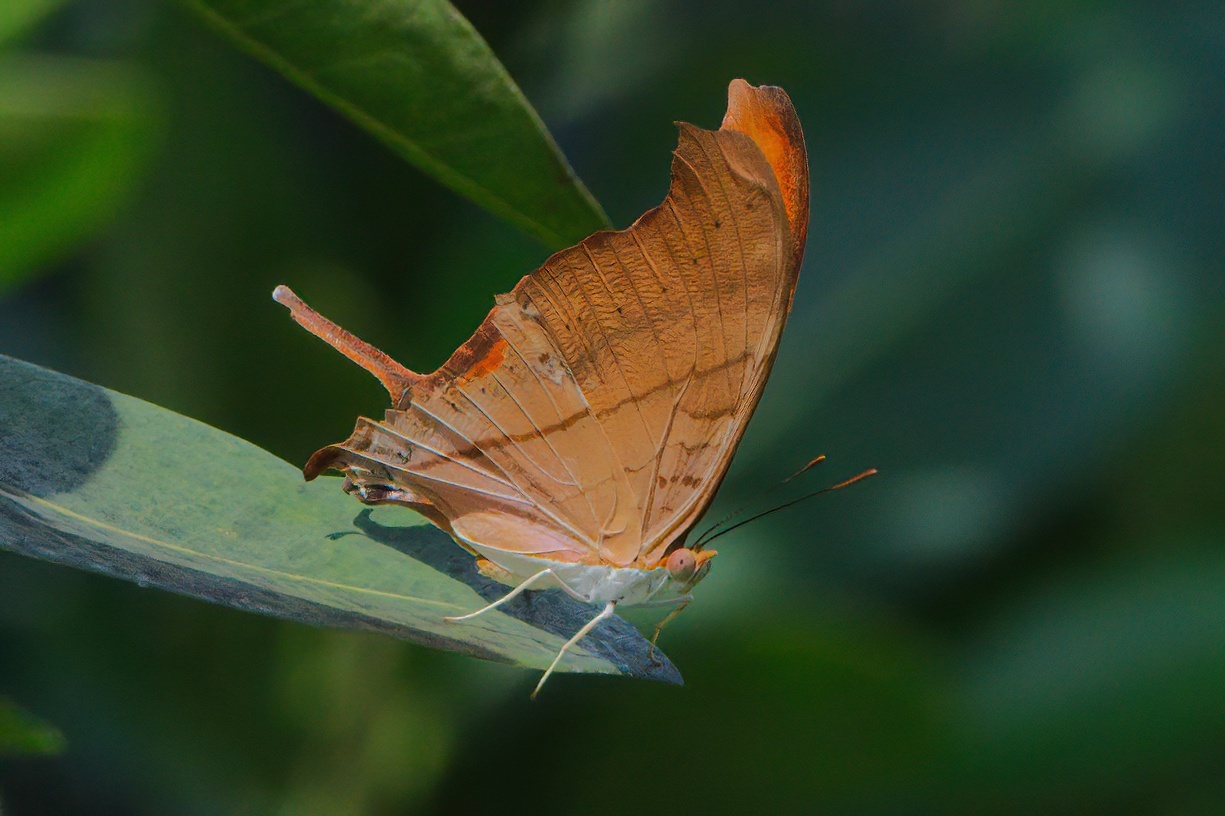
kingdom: Animalia
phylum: Arthropoda
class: Insecta
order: Lepidoptera
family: Nymphalidae
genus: Marpesia
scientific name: Marpesia petreus
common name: Red dagger wing
